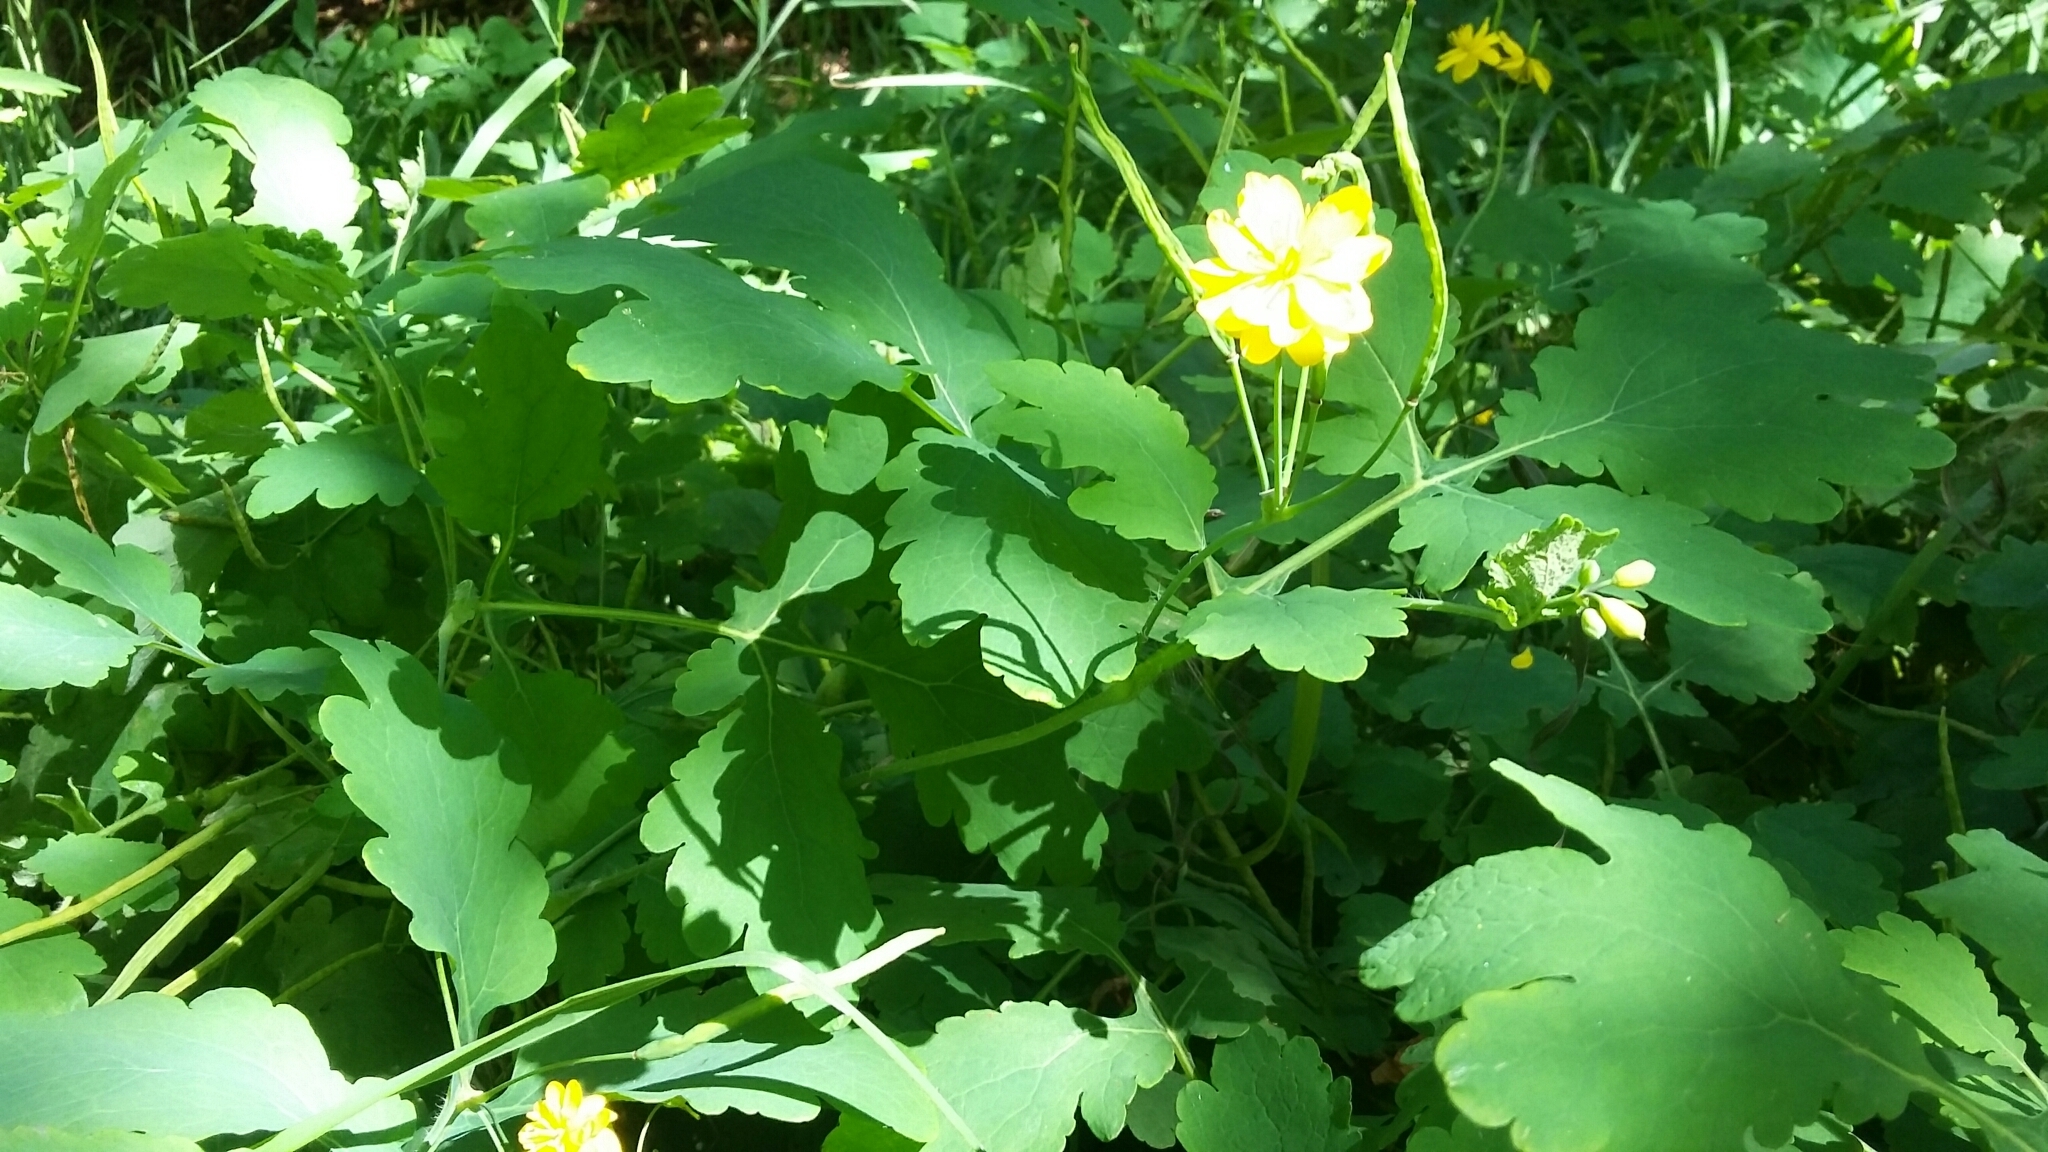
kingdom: Plantae
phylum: Tracheophyta
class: Magnoliopsida
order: Ranunculales
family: Papaveraceae
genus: Chelidonium
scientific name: Chelidonium majus
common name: Greater celandine
